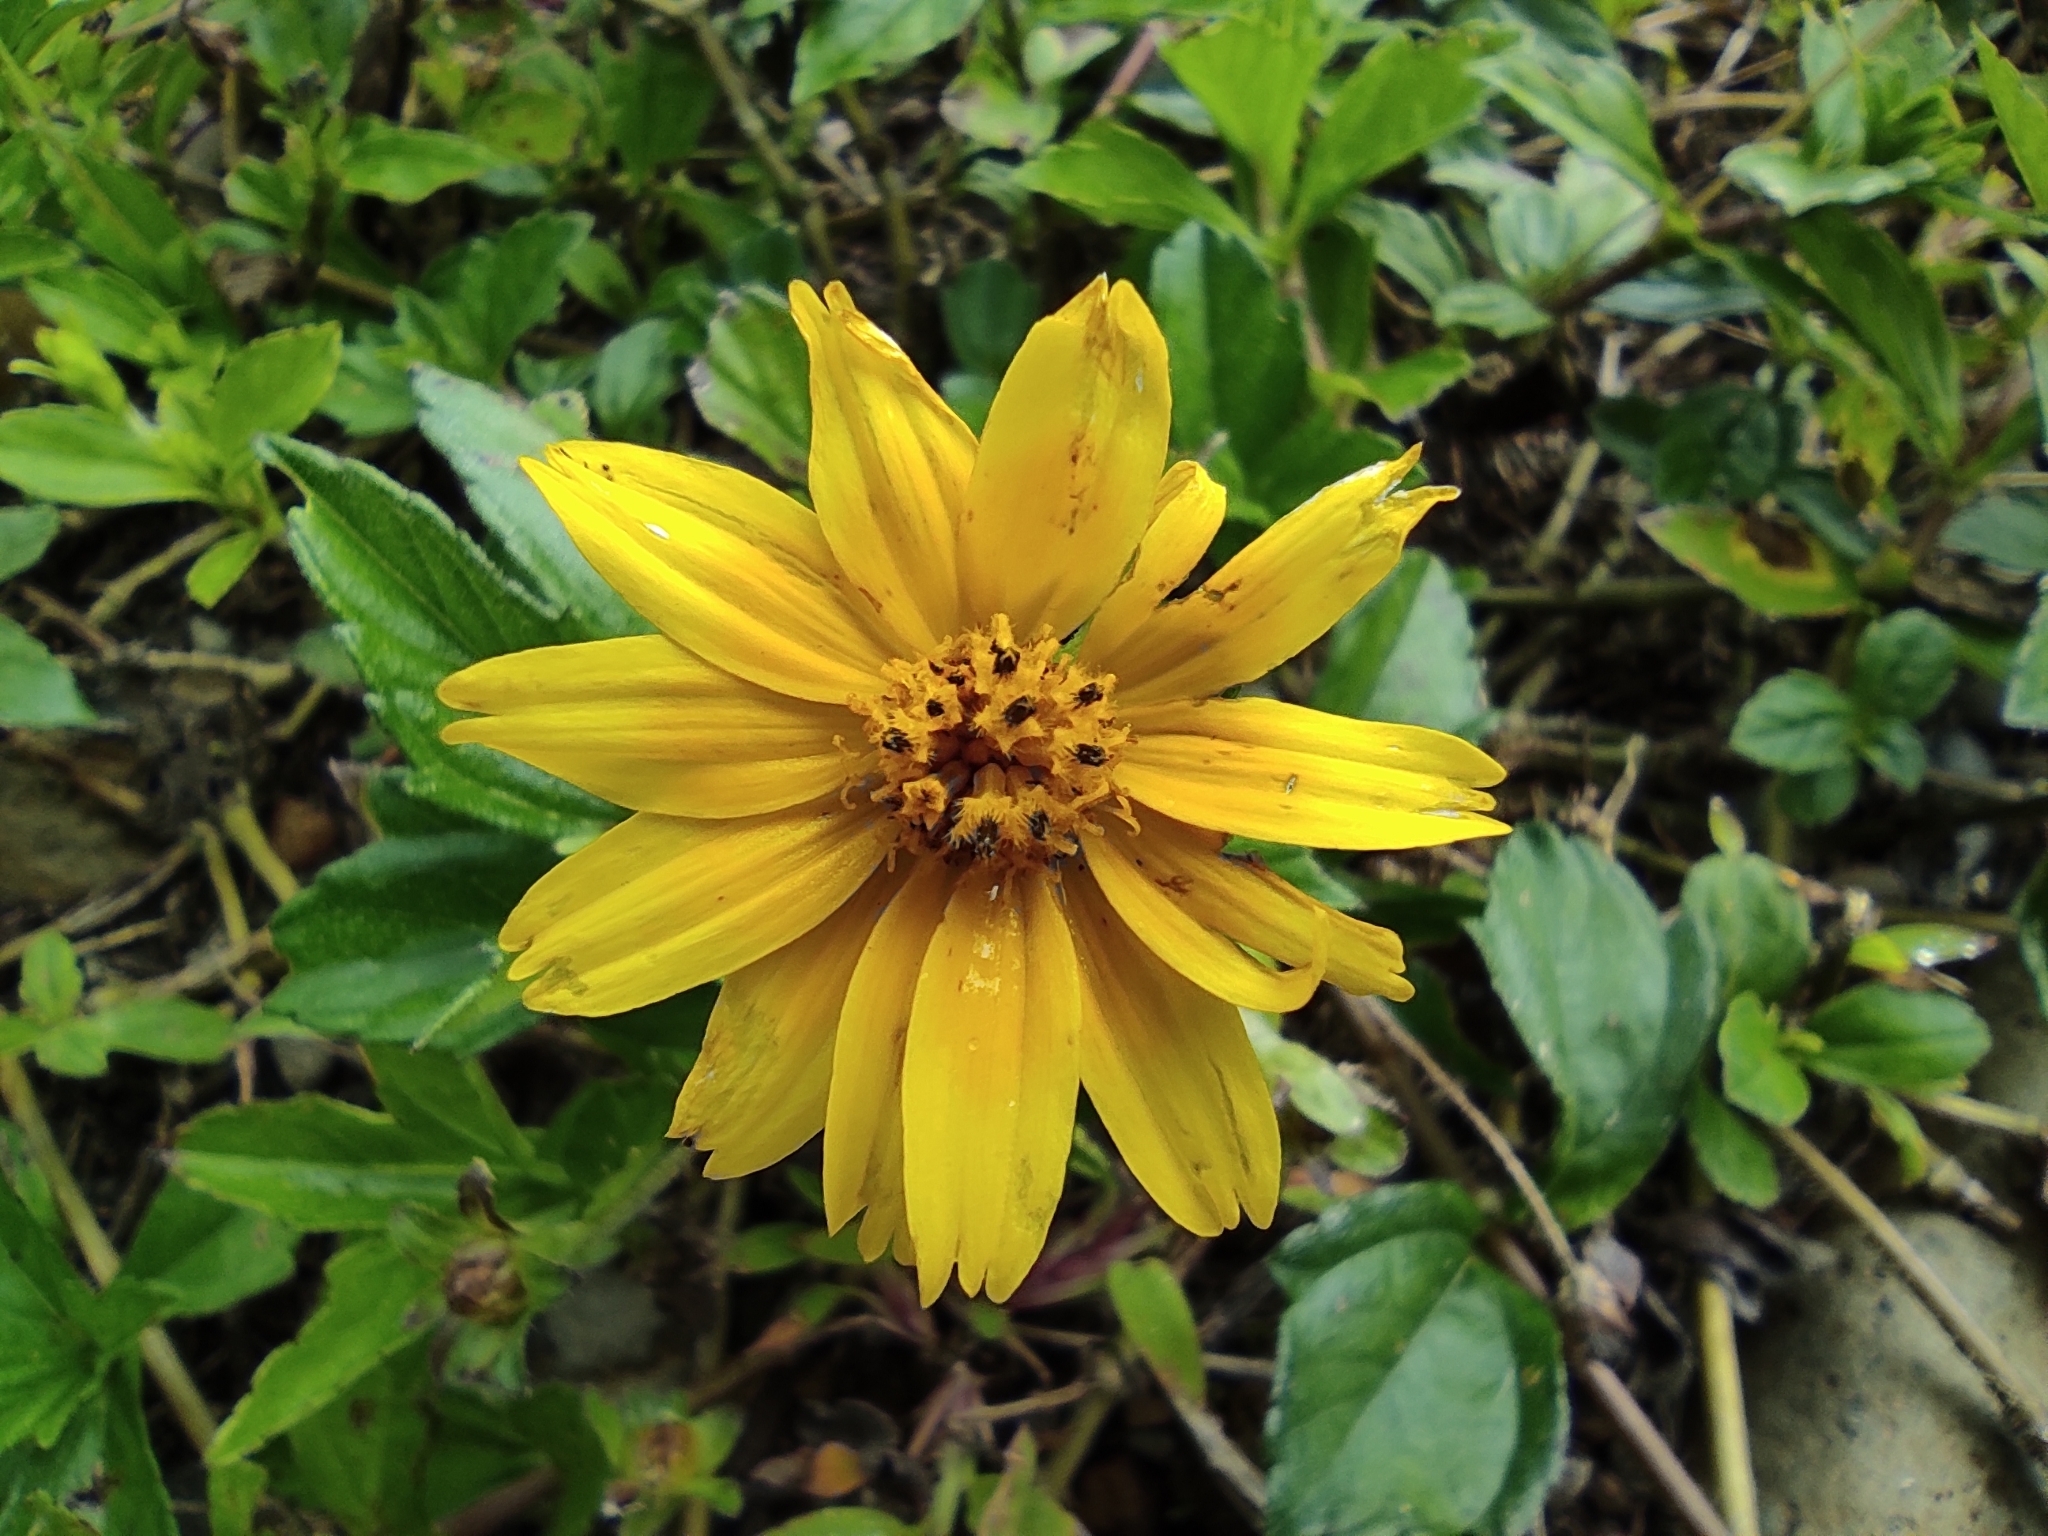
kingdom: Plantae
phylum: Tracheophyta
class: Magnoliopsida
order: Asterales
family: Asteraceae
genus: Sphagneticola
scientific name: Sphagneticola trilobata
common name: Bay biscayne creeping-oxeye
